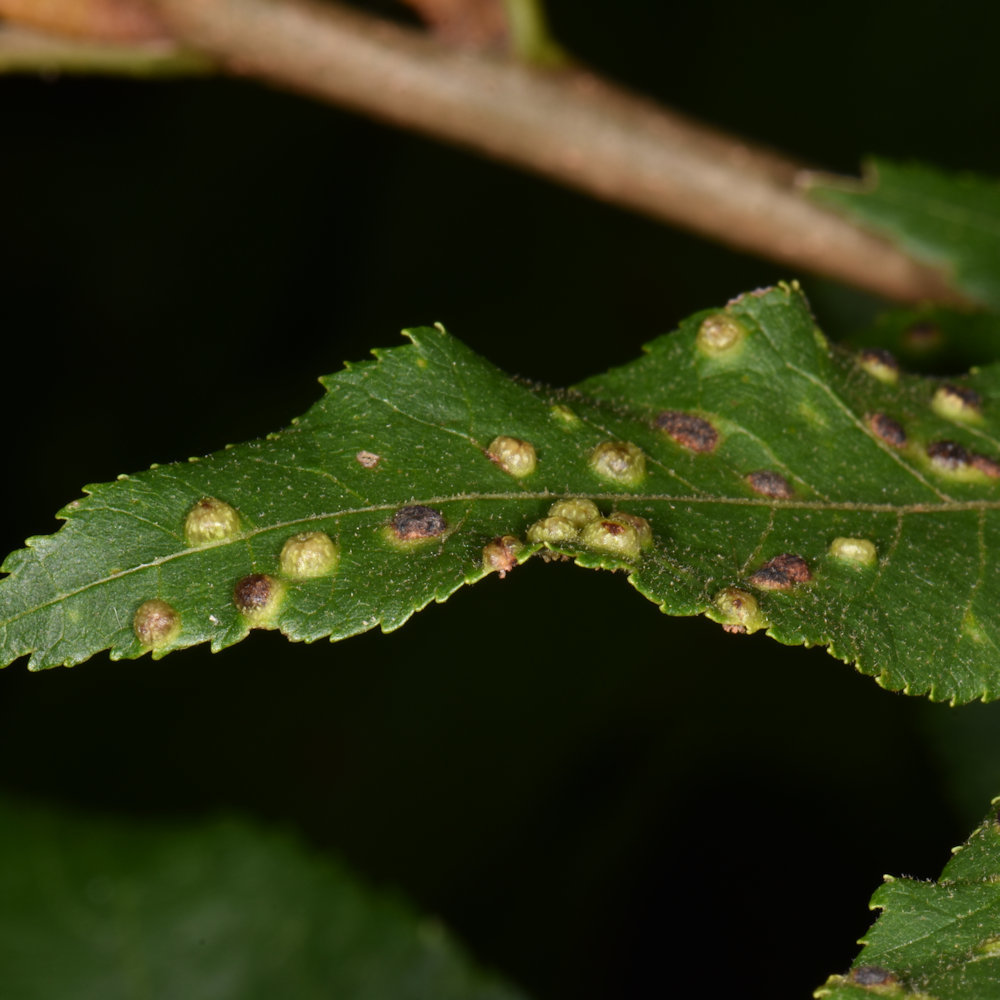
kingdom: Animalia
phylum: Arthropoda
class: Insecta
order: Hemiptera
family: Phylloxeridae
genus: Phylloxera
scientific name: Phylloxera caryae-semen
